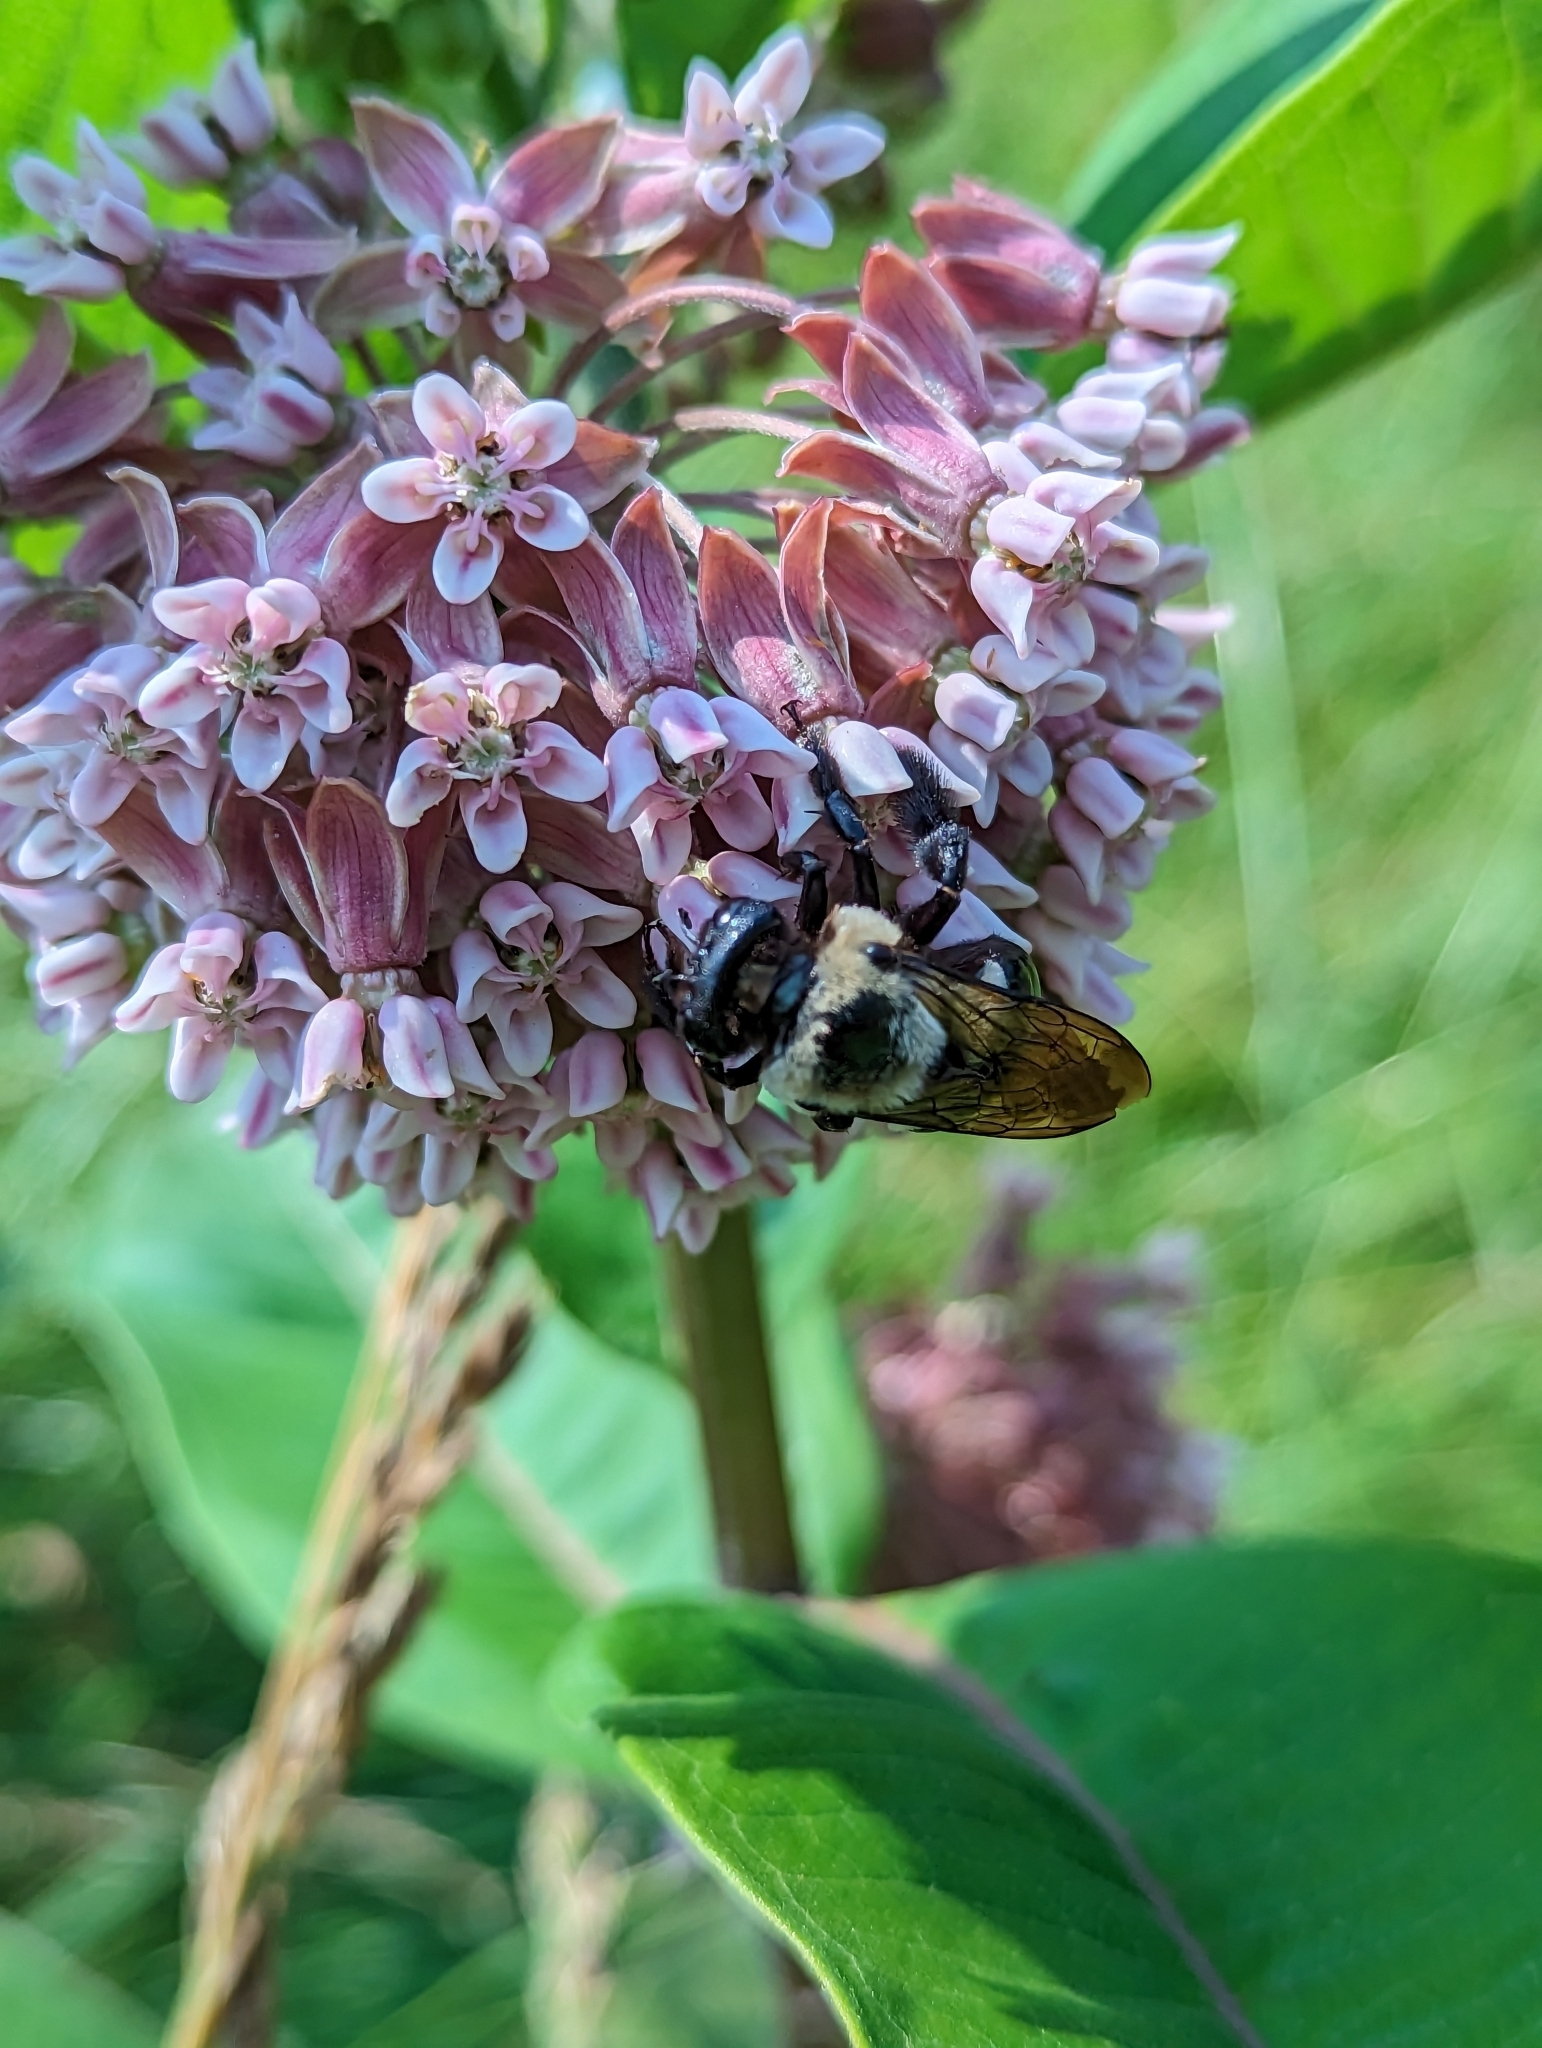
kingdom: Animalia
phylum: Arthropoda
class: Insecta
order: Hymenoptera
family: Apidae
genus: Xylocopa
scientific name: Xylocopa virginica
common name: Carpenter bee
